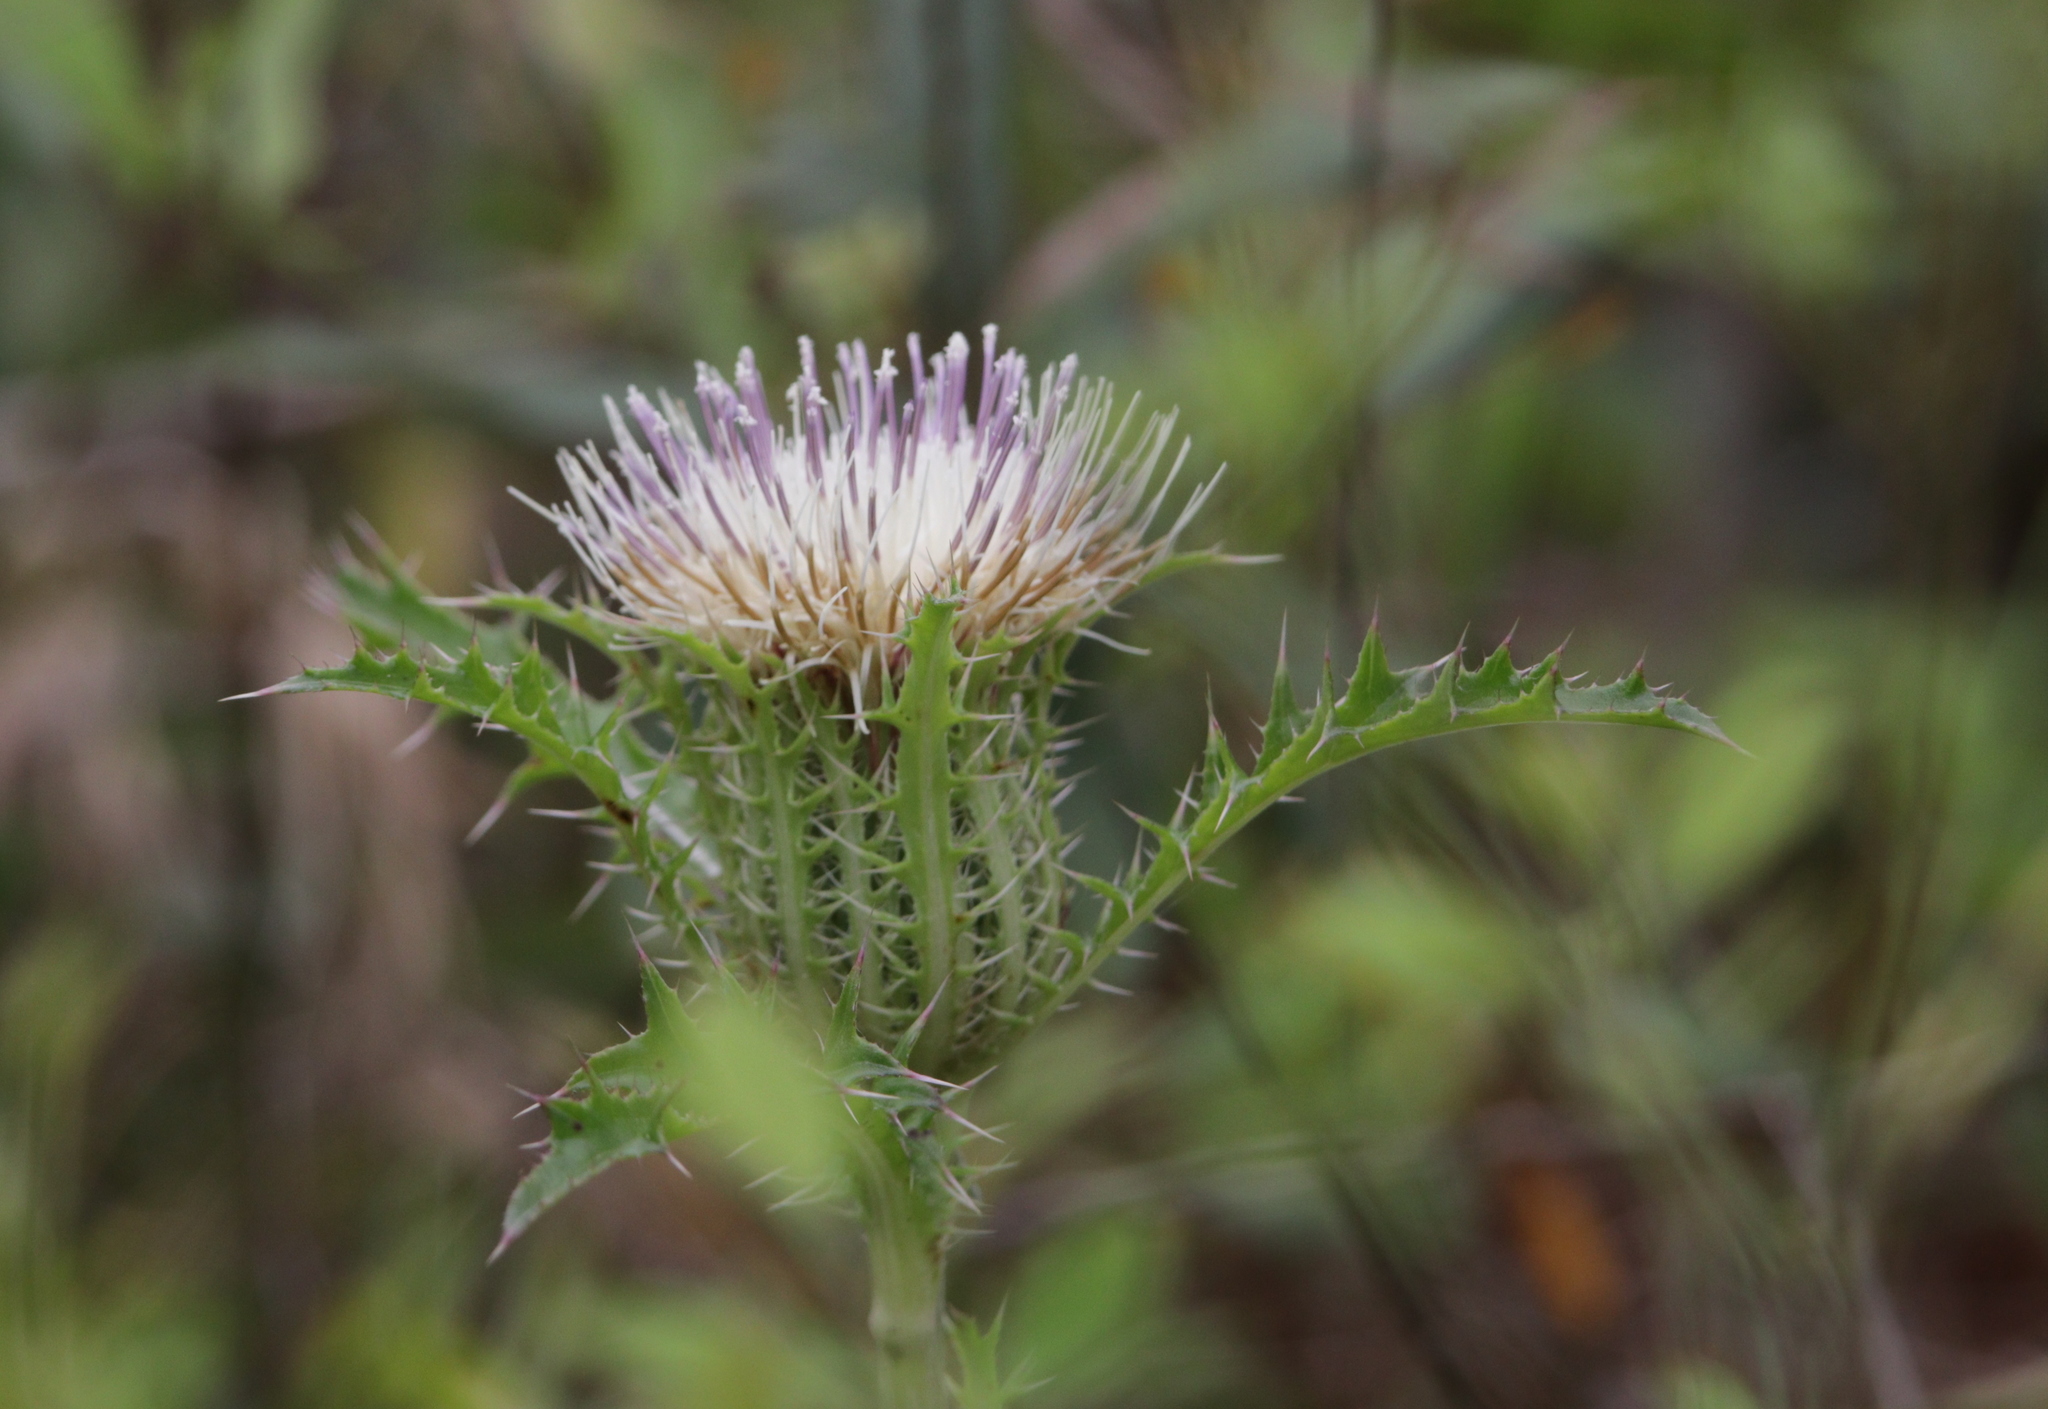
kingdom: Plantae
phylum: Tracheophyta
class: Magnoliopsida
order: Asterales
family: Asteraceae
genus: Cirsium
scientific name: Cirsium horridulum
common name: Bristly thistle
